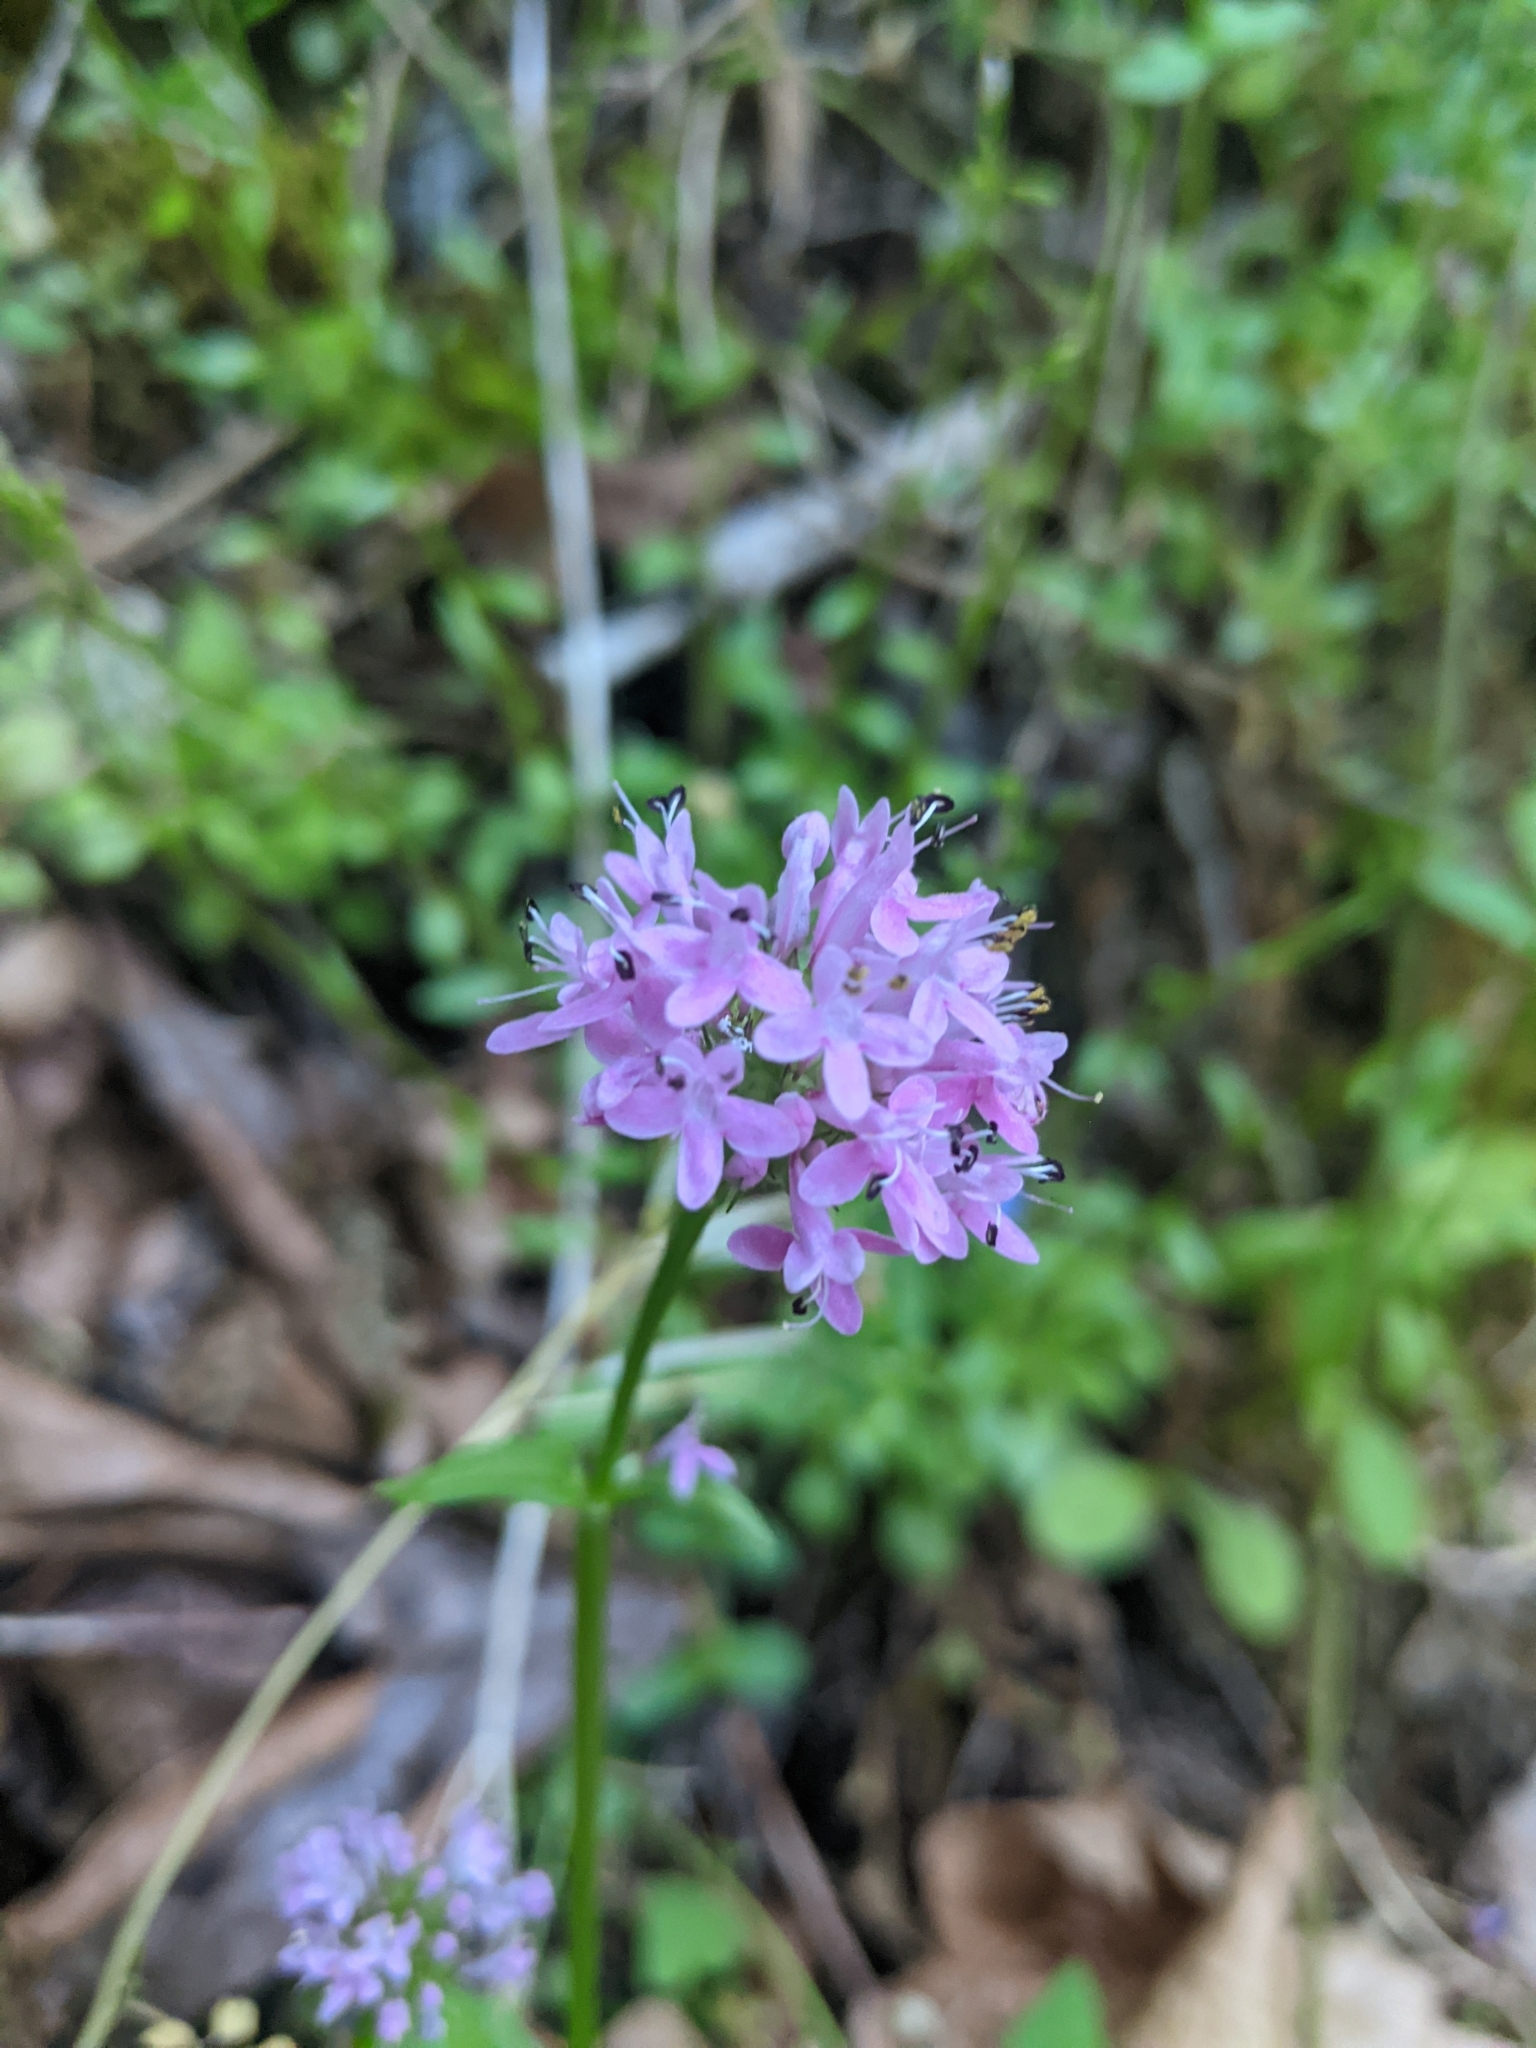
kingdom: Plantae
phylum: Tracheophyta
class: Magnoliopsida
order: Dipsacales
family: Caprifoliaceae
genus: Plectritis
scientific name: Plectritis congesta
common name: Pink plectritis
